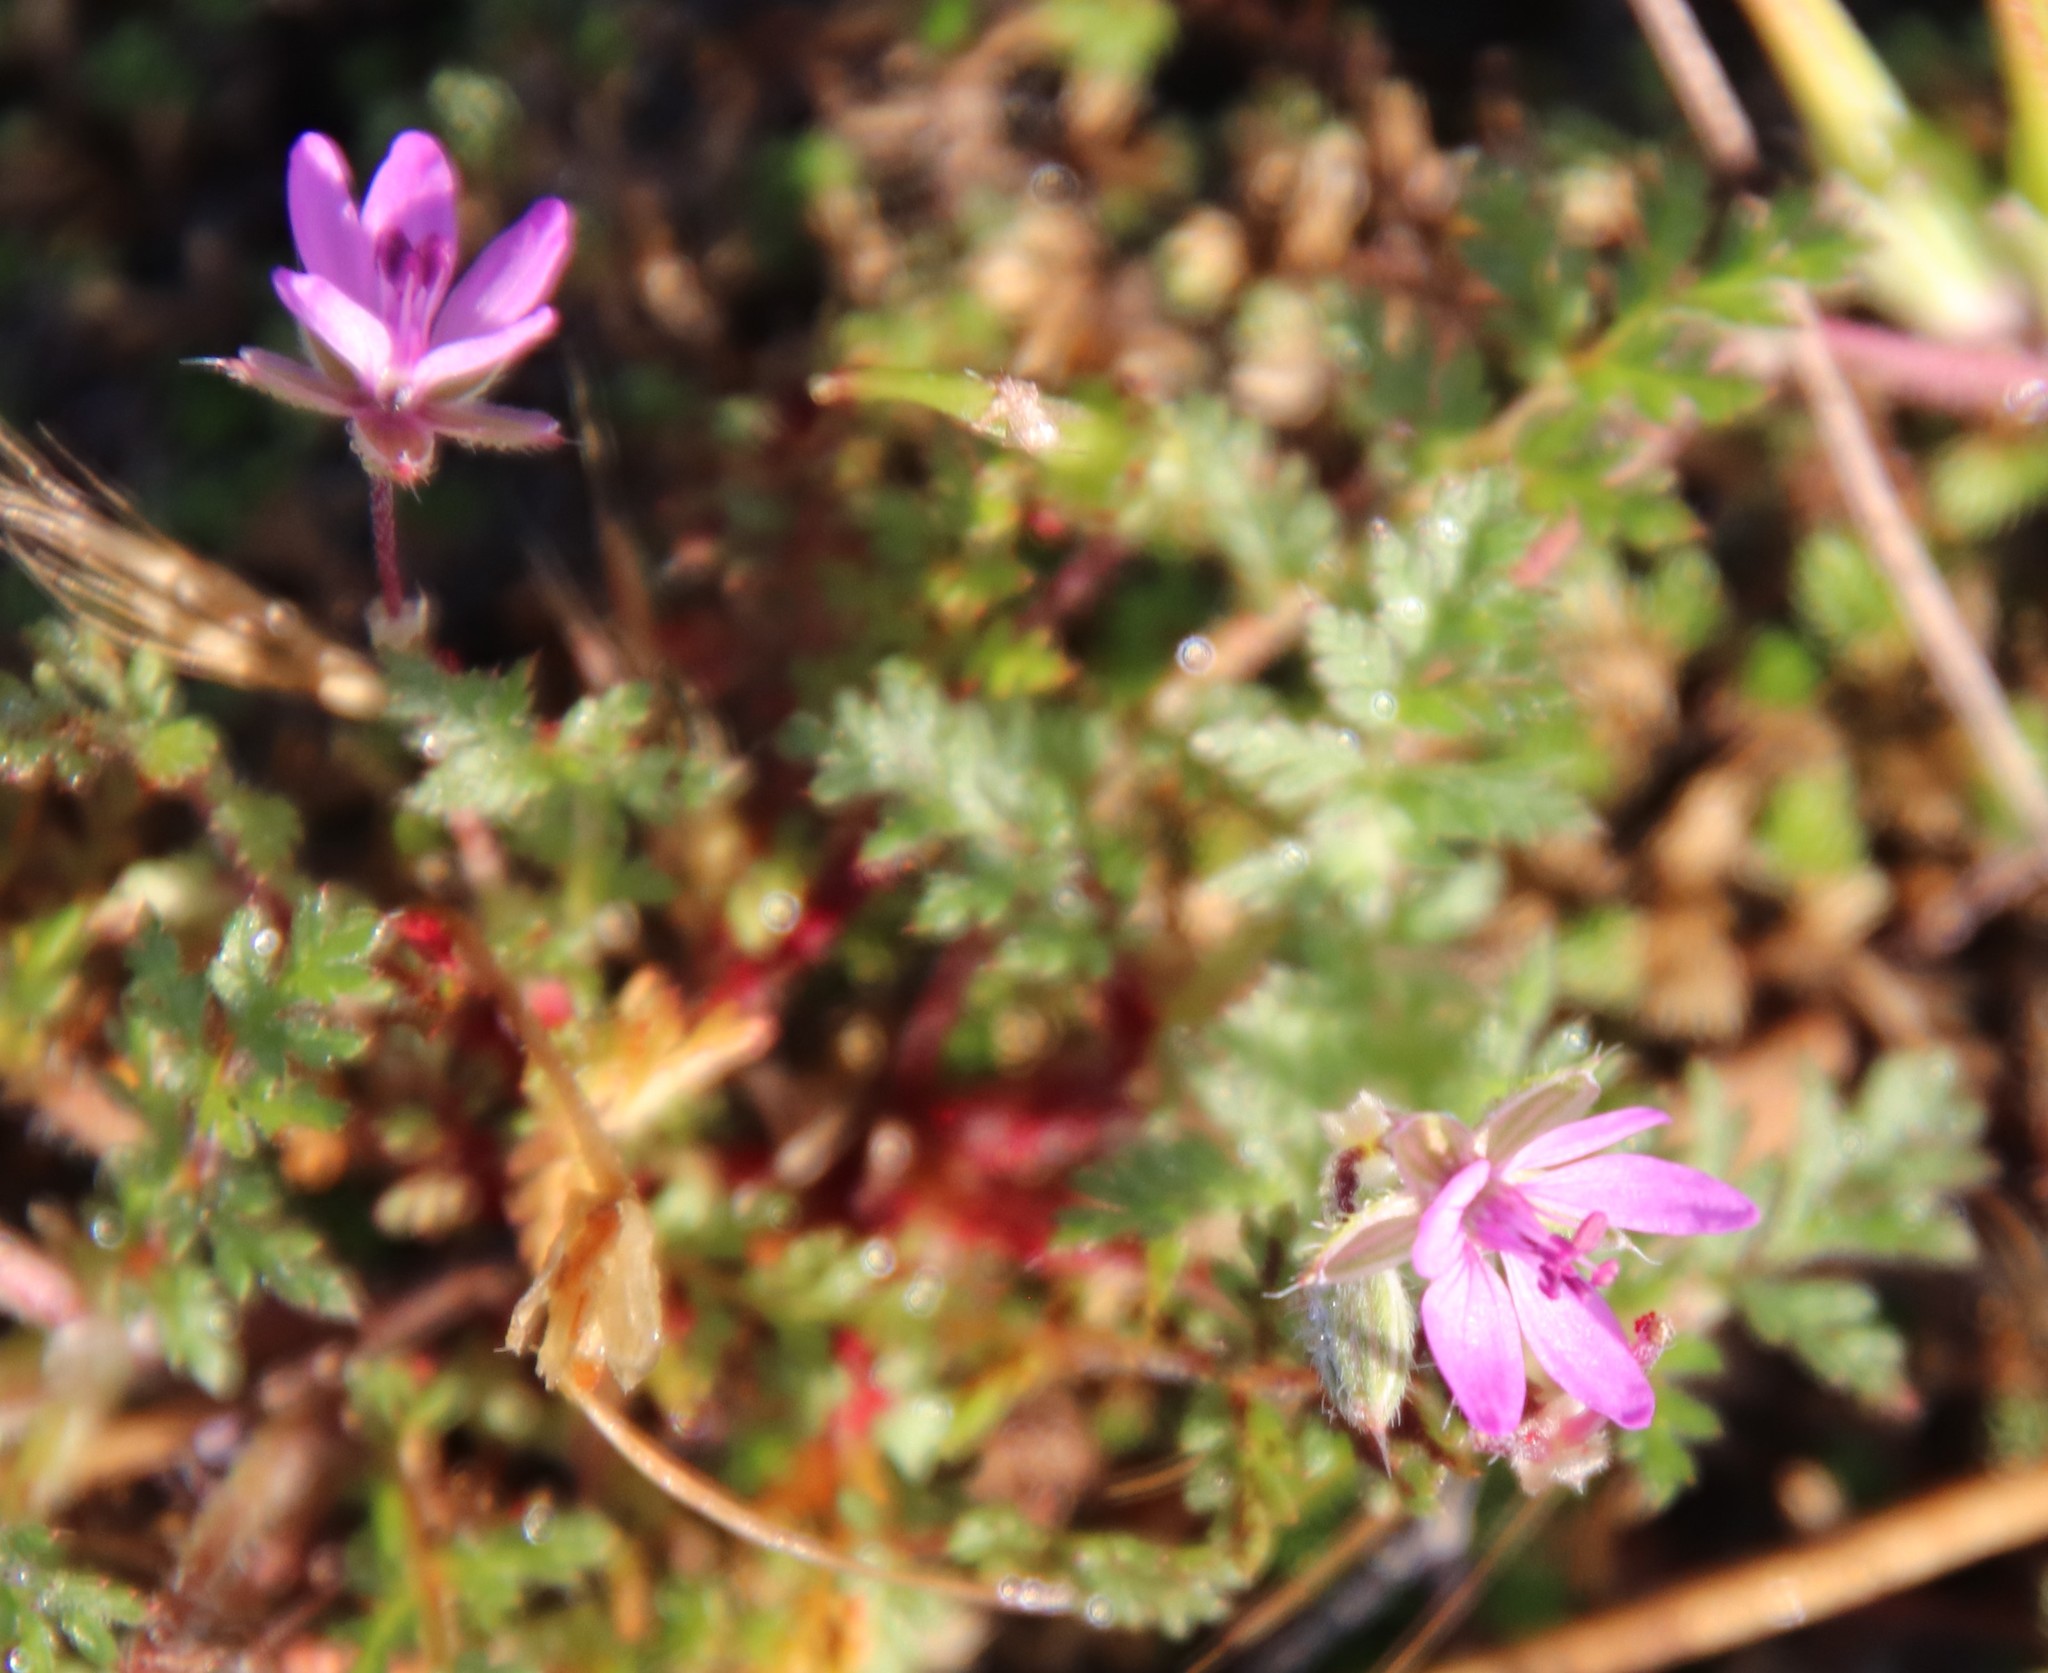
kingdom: Plantae
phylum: Tracheophyta
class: Magnoliopsida
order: Geraniales
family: Geraniaceae
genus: Erodium
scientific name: Erodium cicutarium
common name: Common stork's-bill
